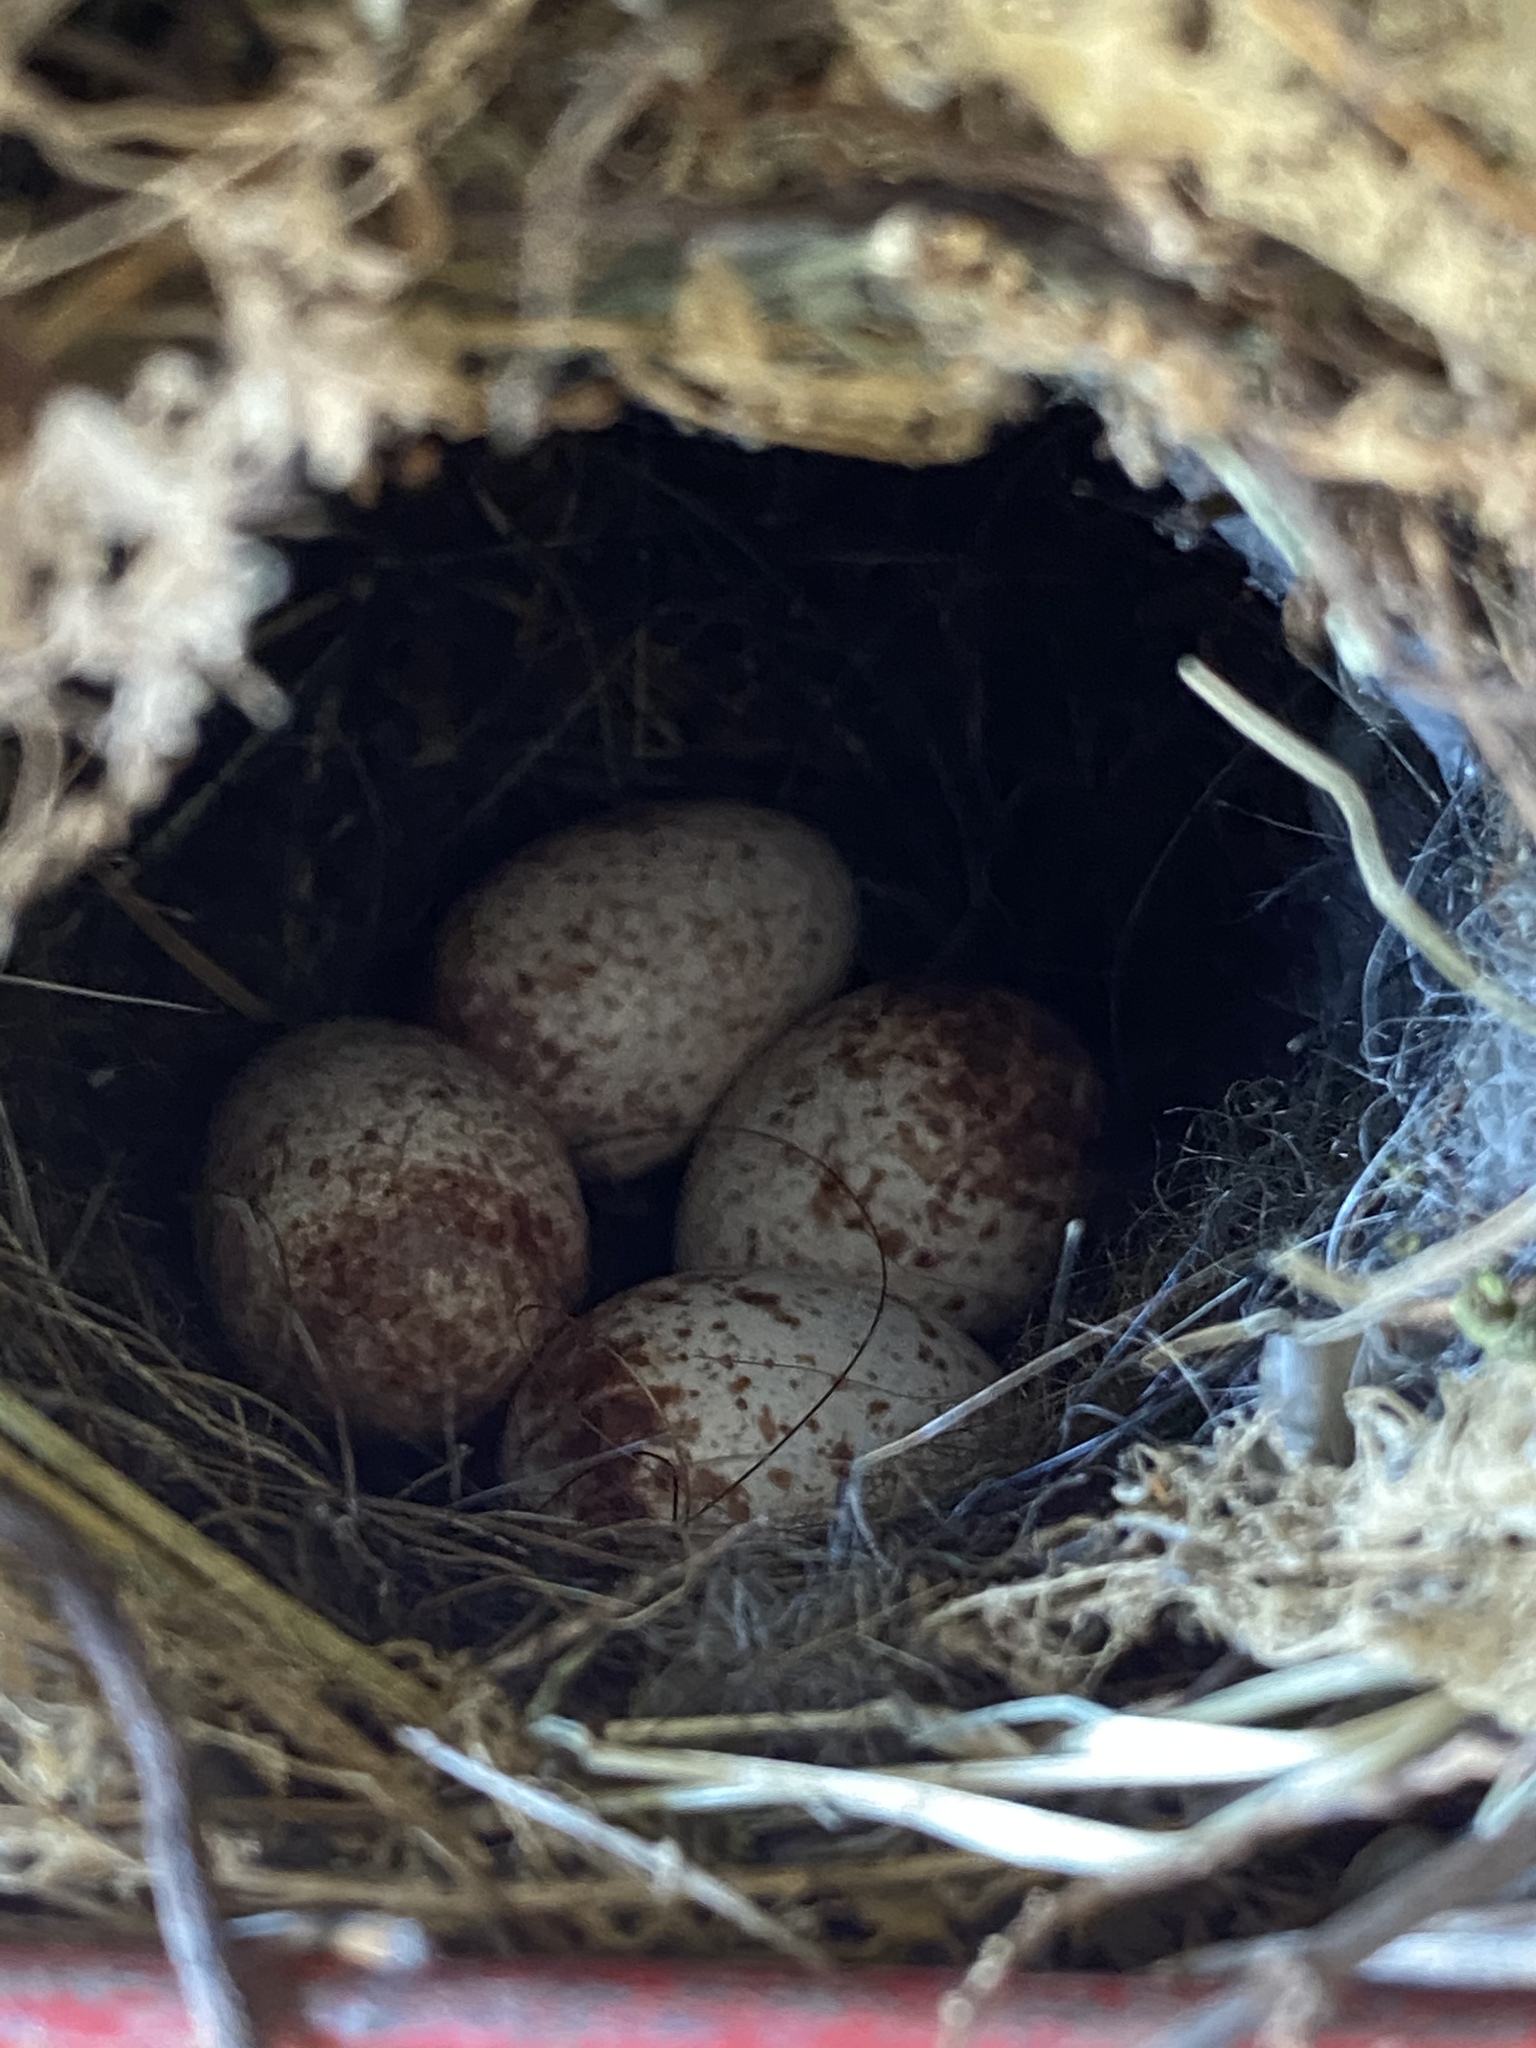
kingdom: Animalia
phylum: Chordata
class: Aves
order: Passeriformes
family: Troglodytidae
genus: Thryothorus
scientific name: Thryothorus ludovicianus
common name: Carolina wren
